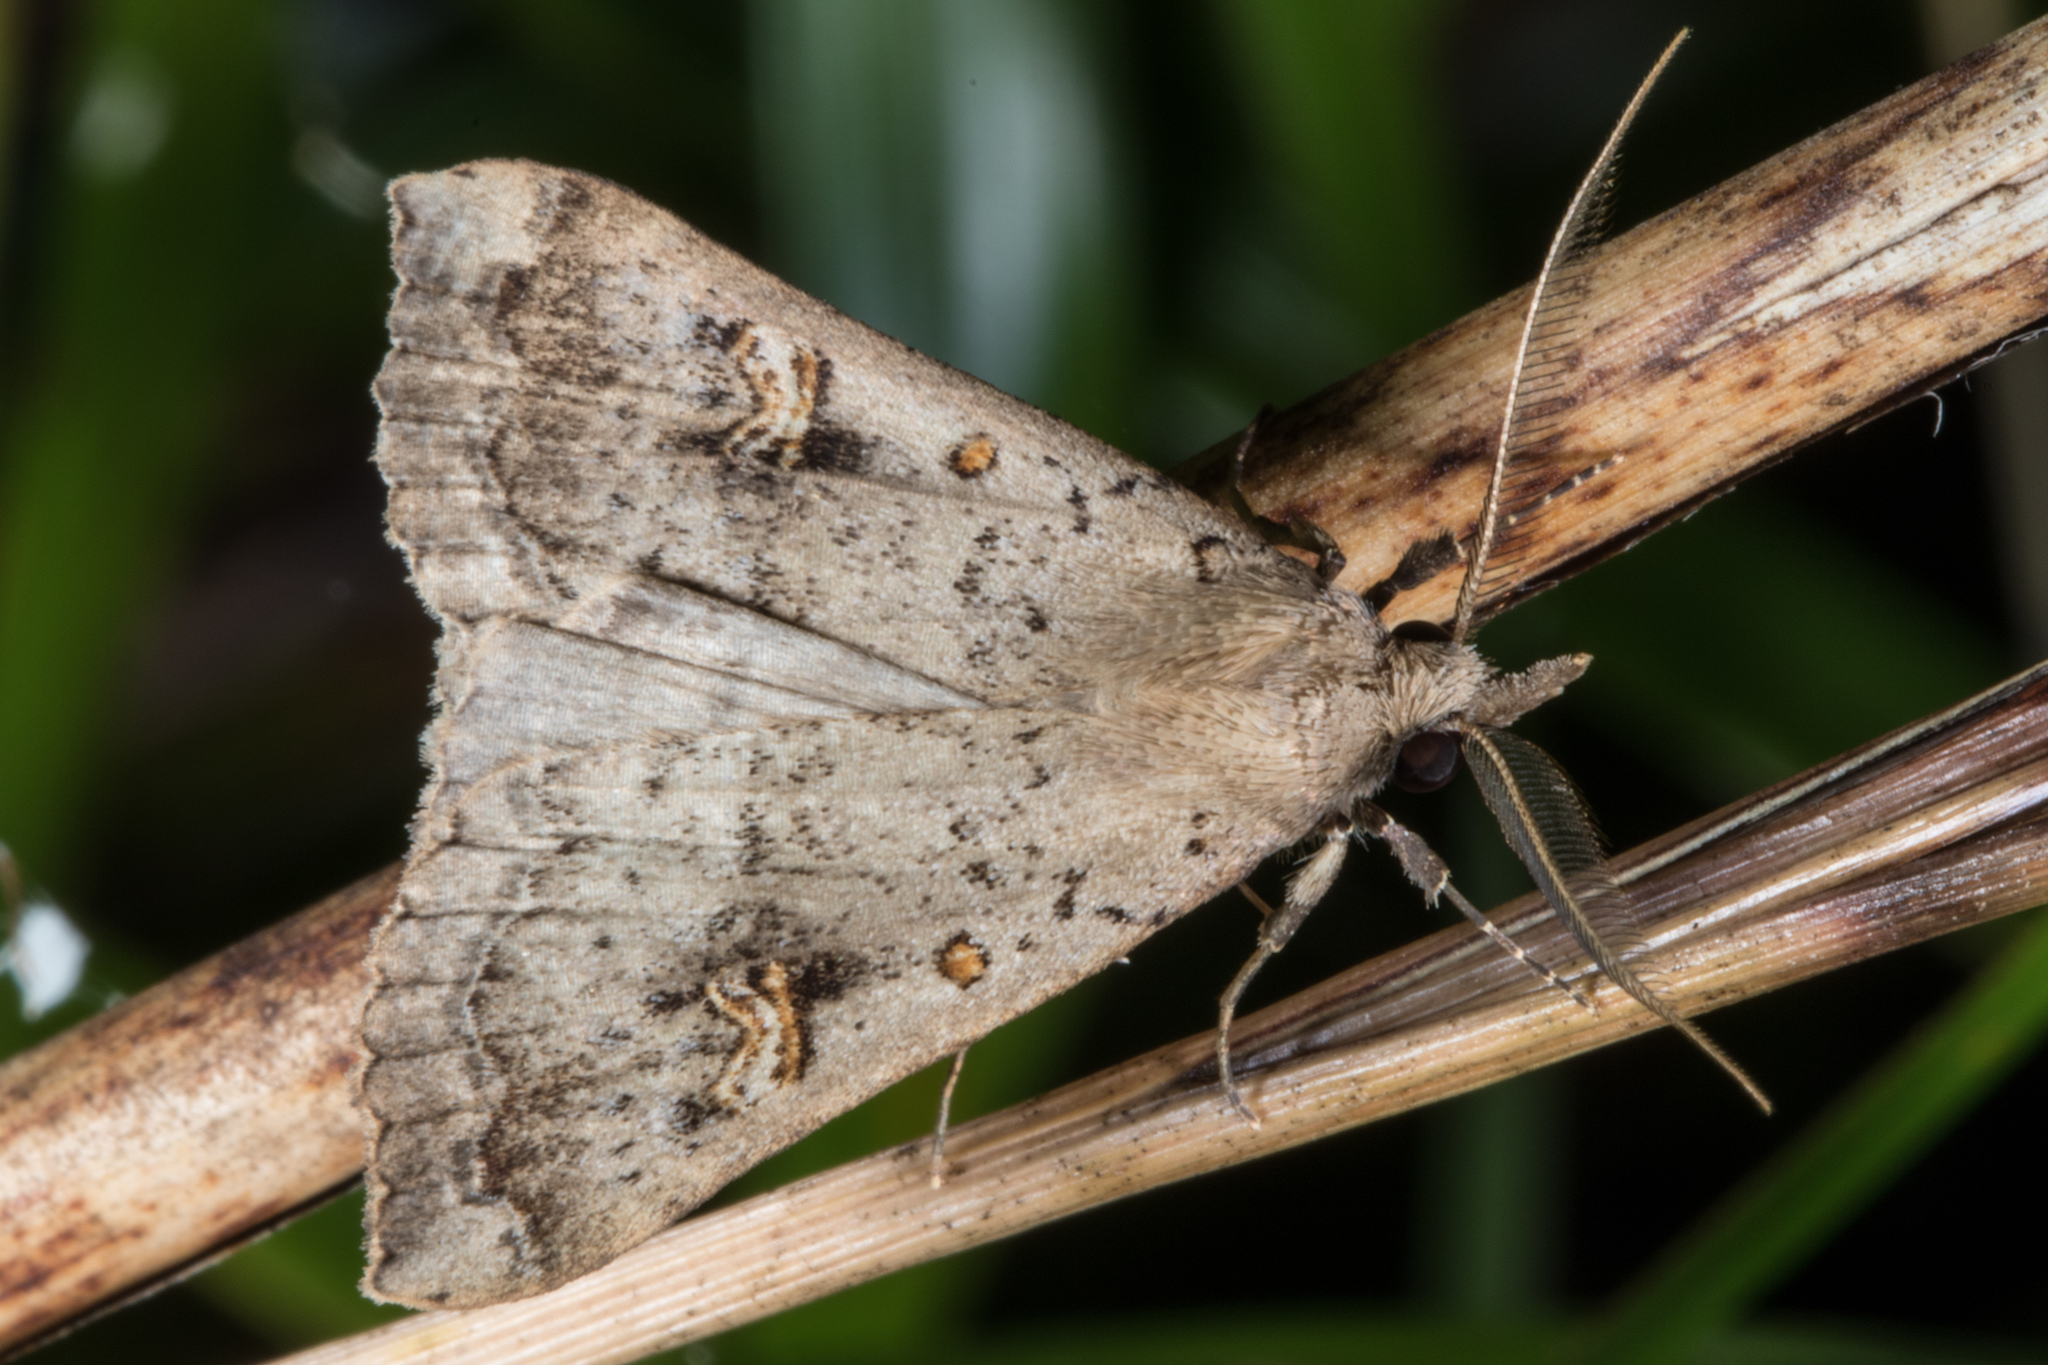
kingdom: Animalia
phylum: Arthropoda
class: Insecta
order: Lepidoptera
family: Erebidae
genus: Rhapsa
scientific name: Rhapsa scotosialis
